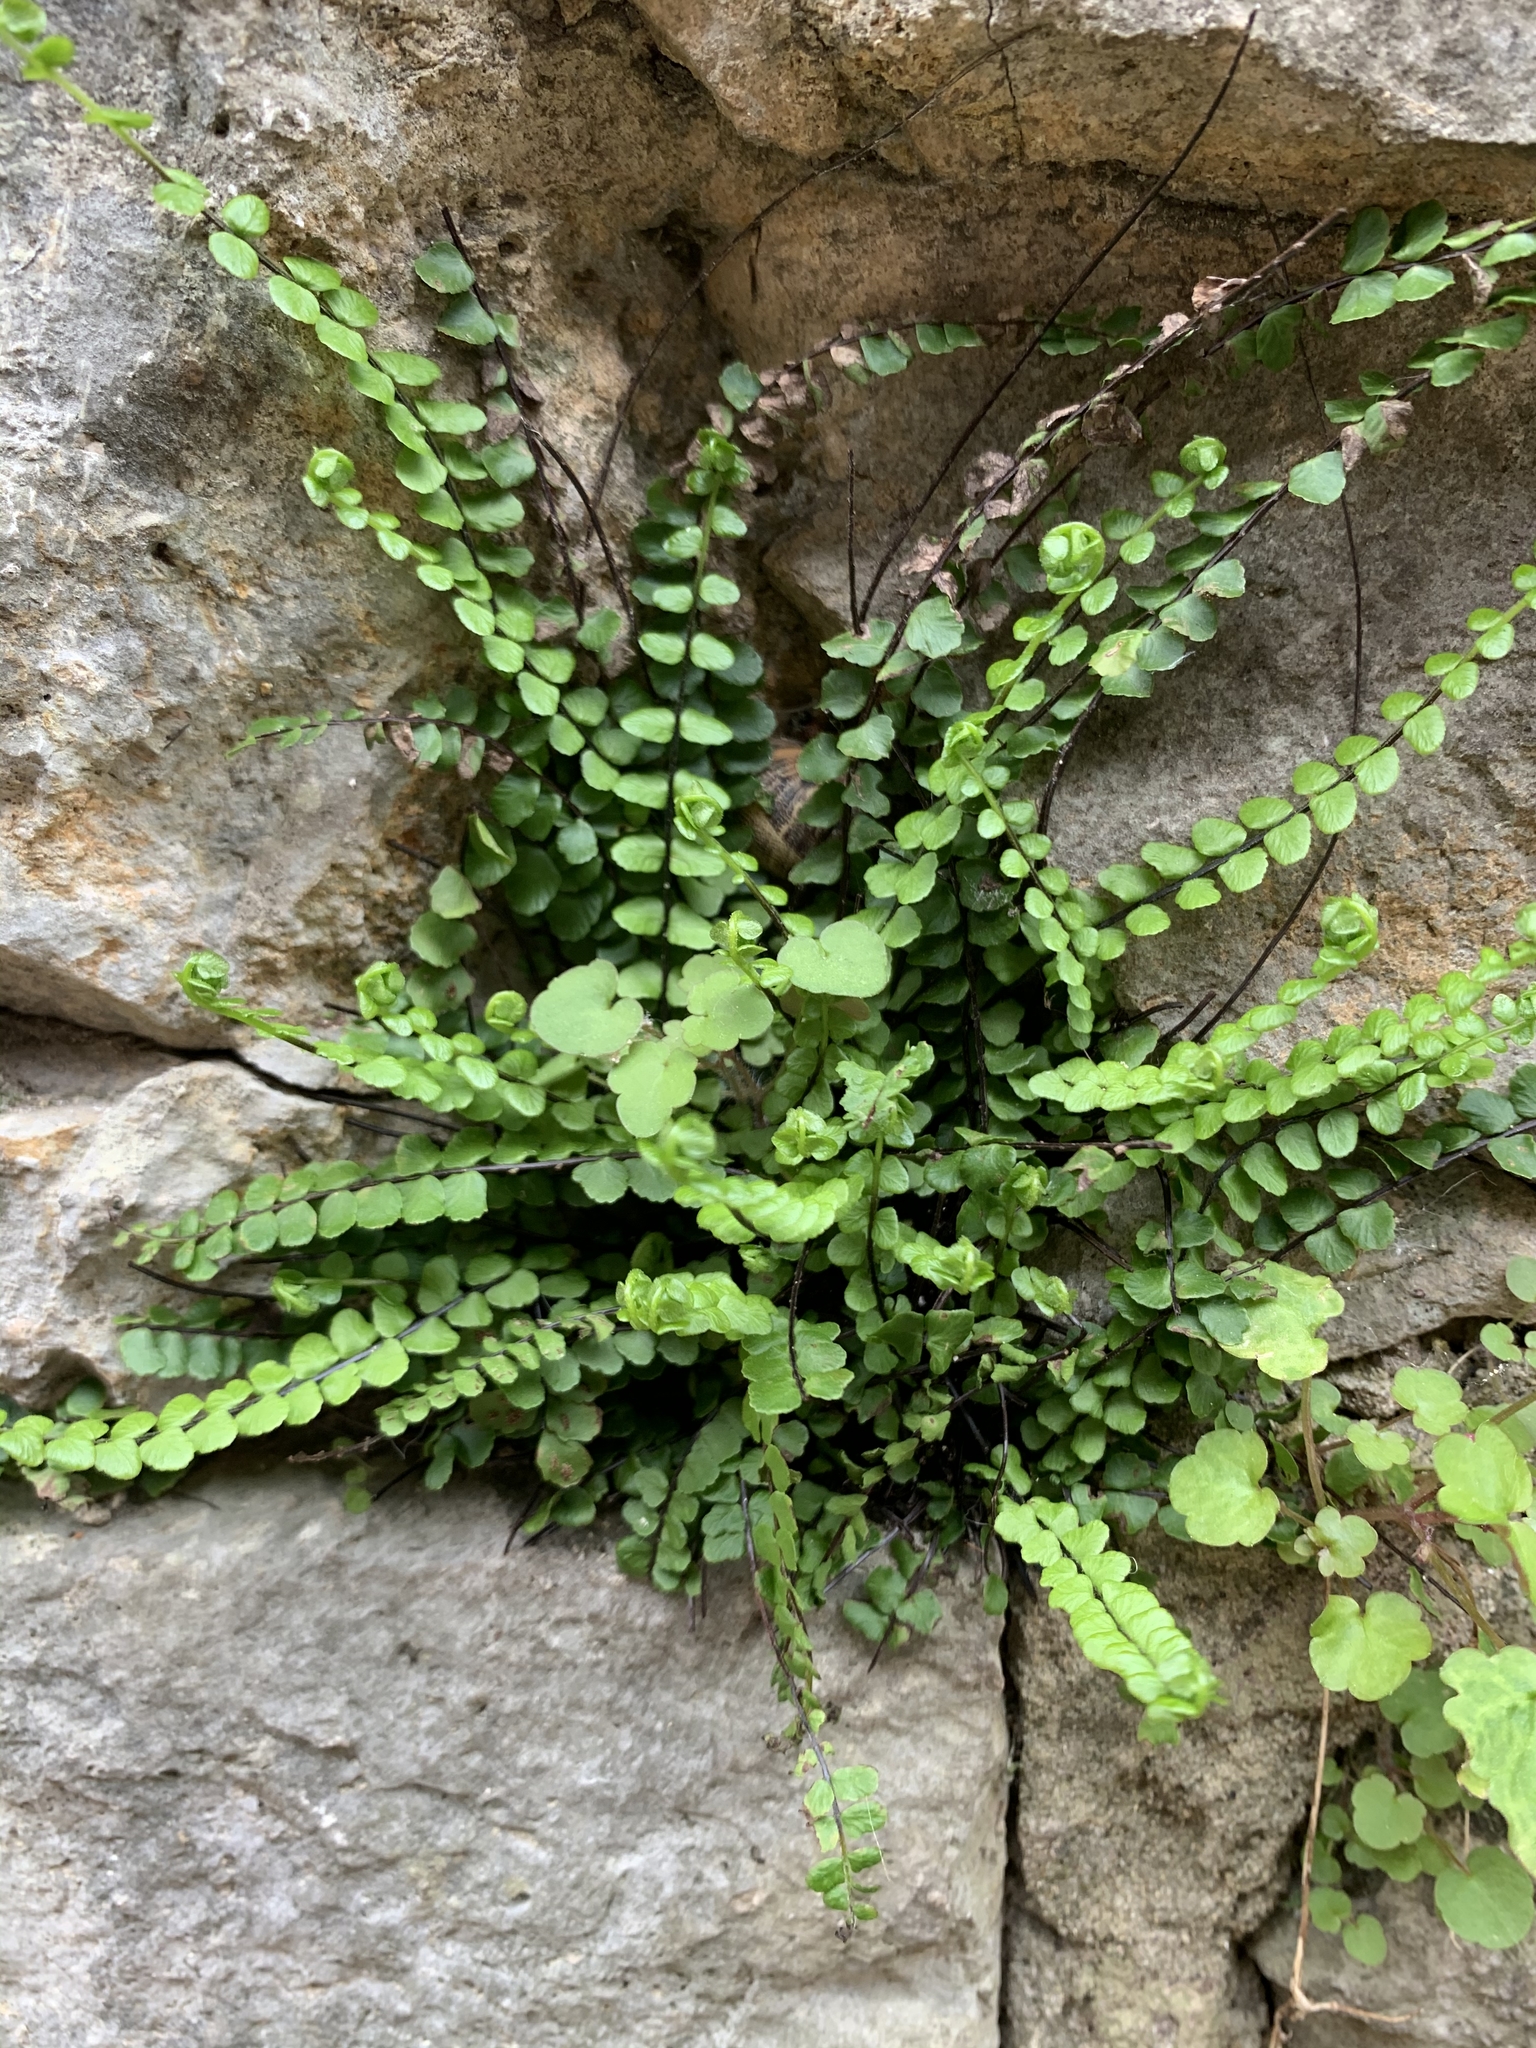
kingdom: Plantae
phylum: Tracheophyta
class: Polypodiopsida
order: Polypodiales
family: Aspleniaceae
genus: Asplenium
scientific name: Asplenium trichomanes
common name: Maidenhair spleenwort
